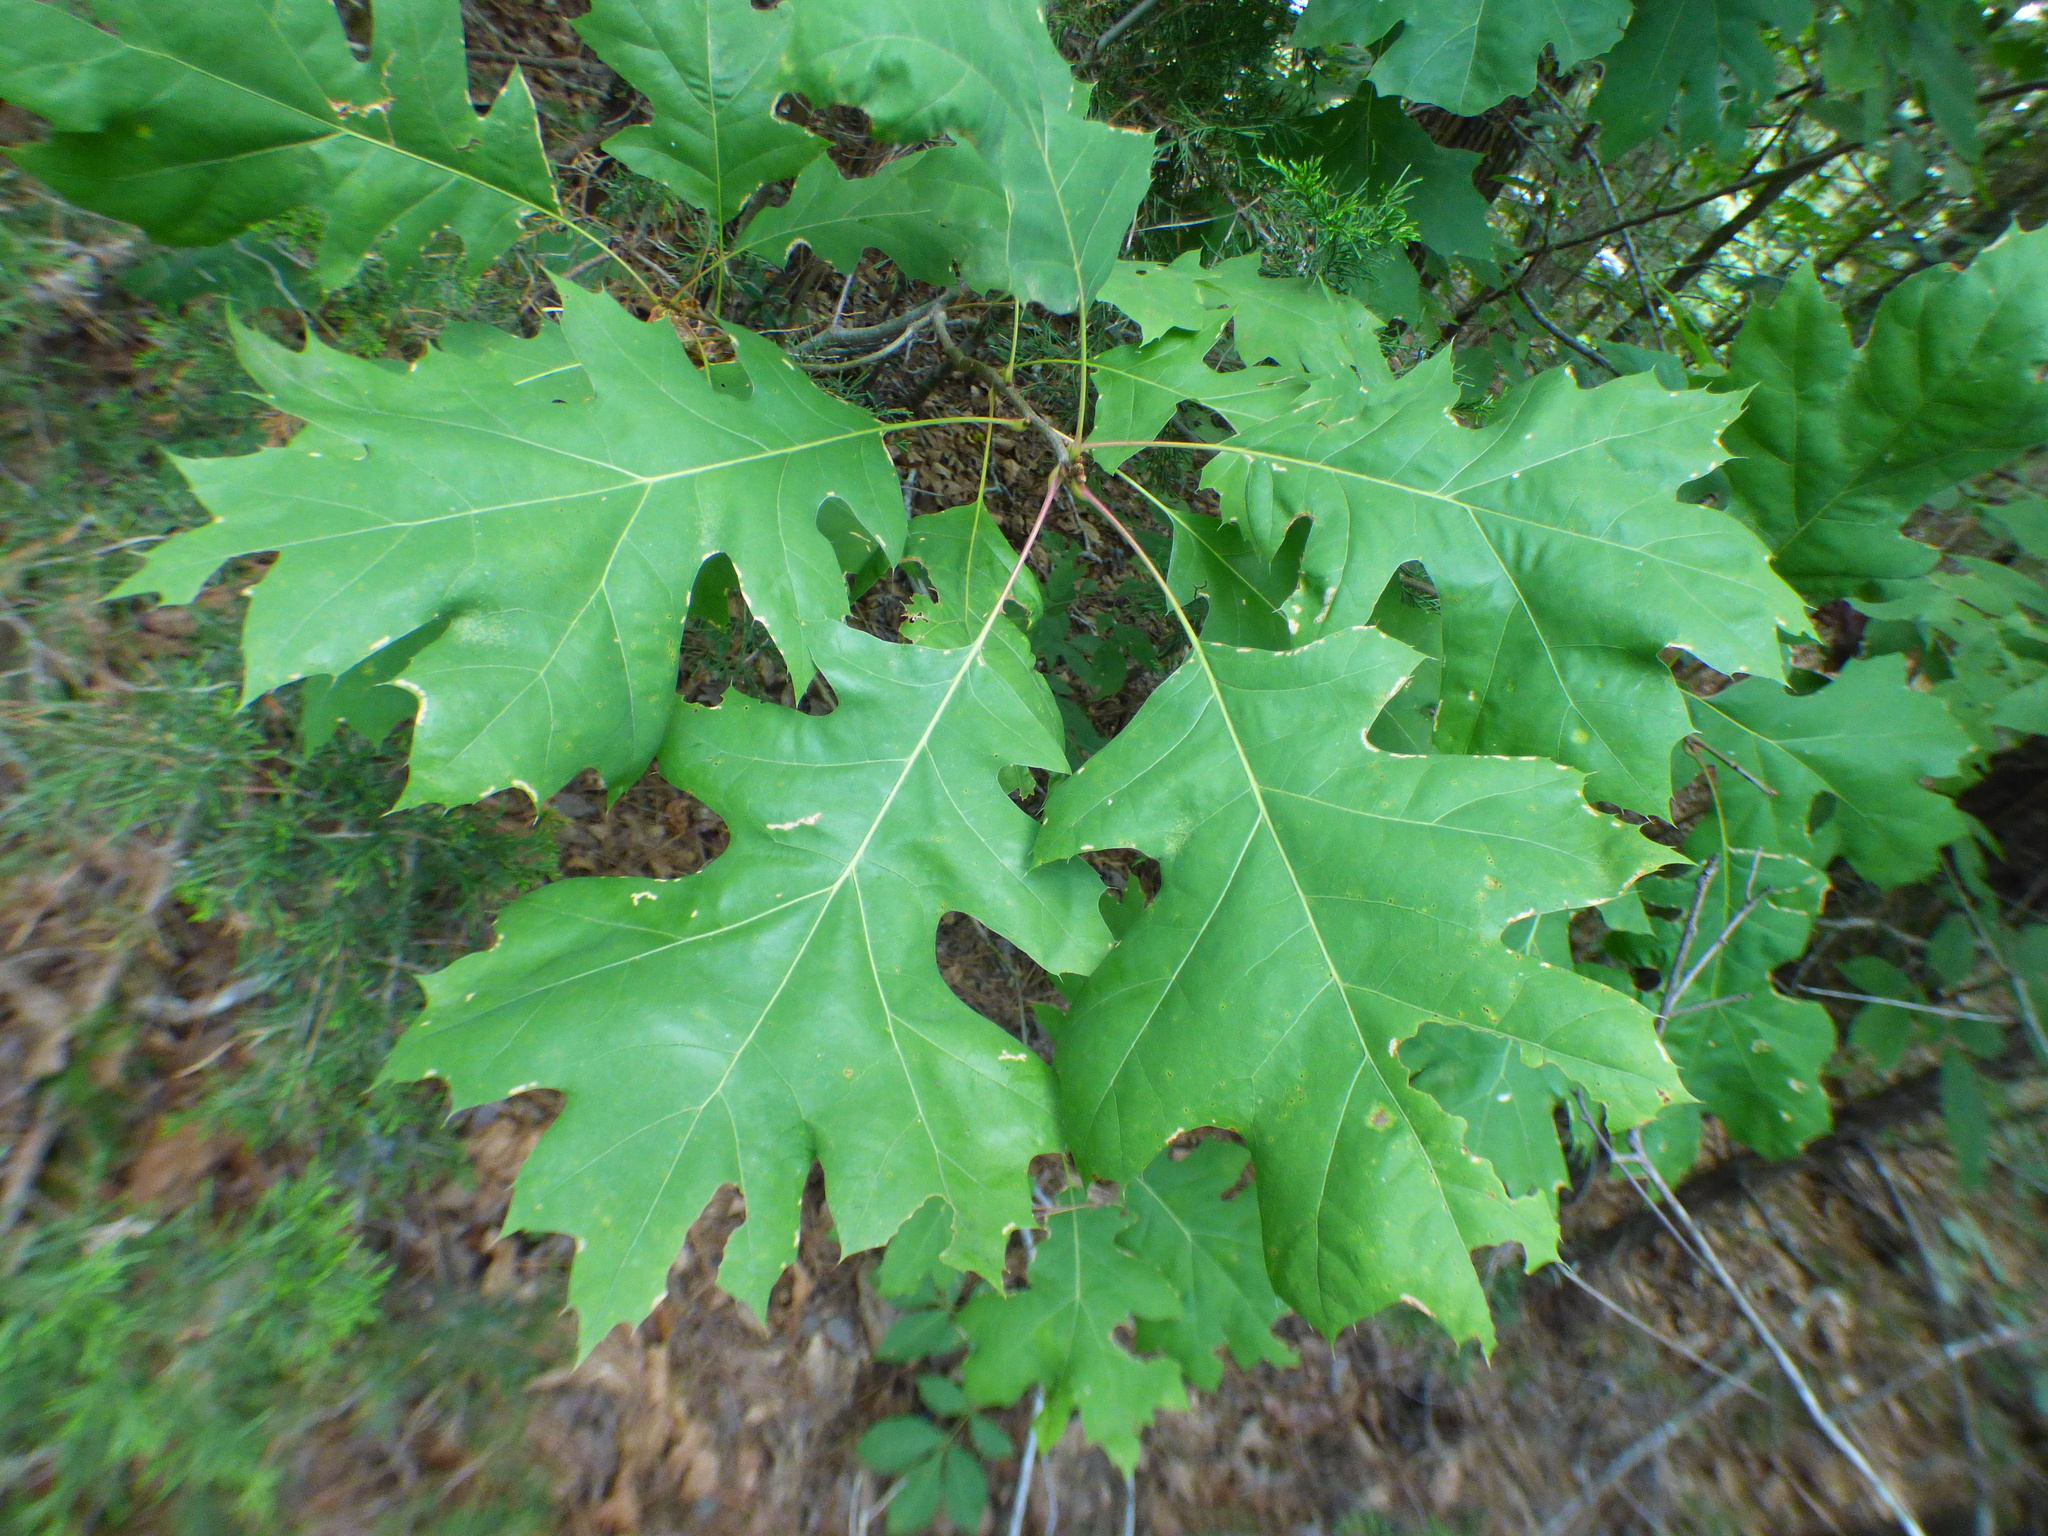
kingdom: Plantae
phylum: Tracheophyta
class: Magnoliopsida
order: Fagales
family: Fagaceae
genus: Quercus
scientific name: Quercus rubra
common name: Red oak
